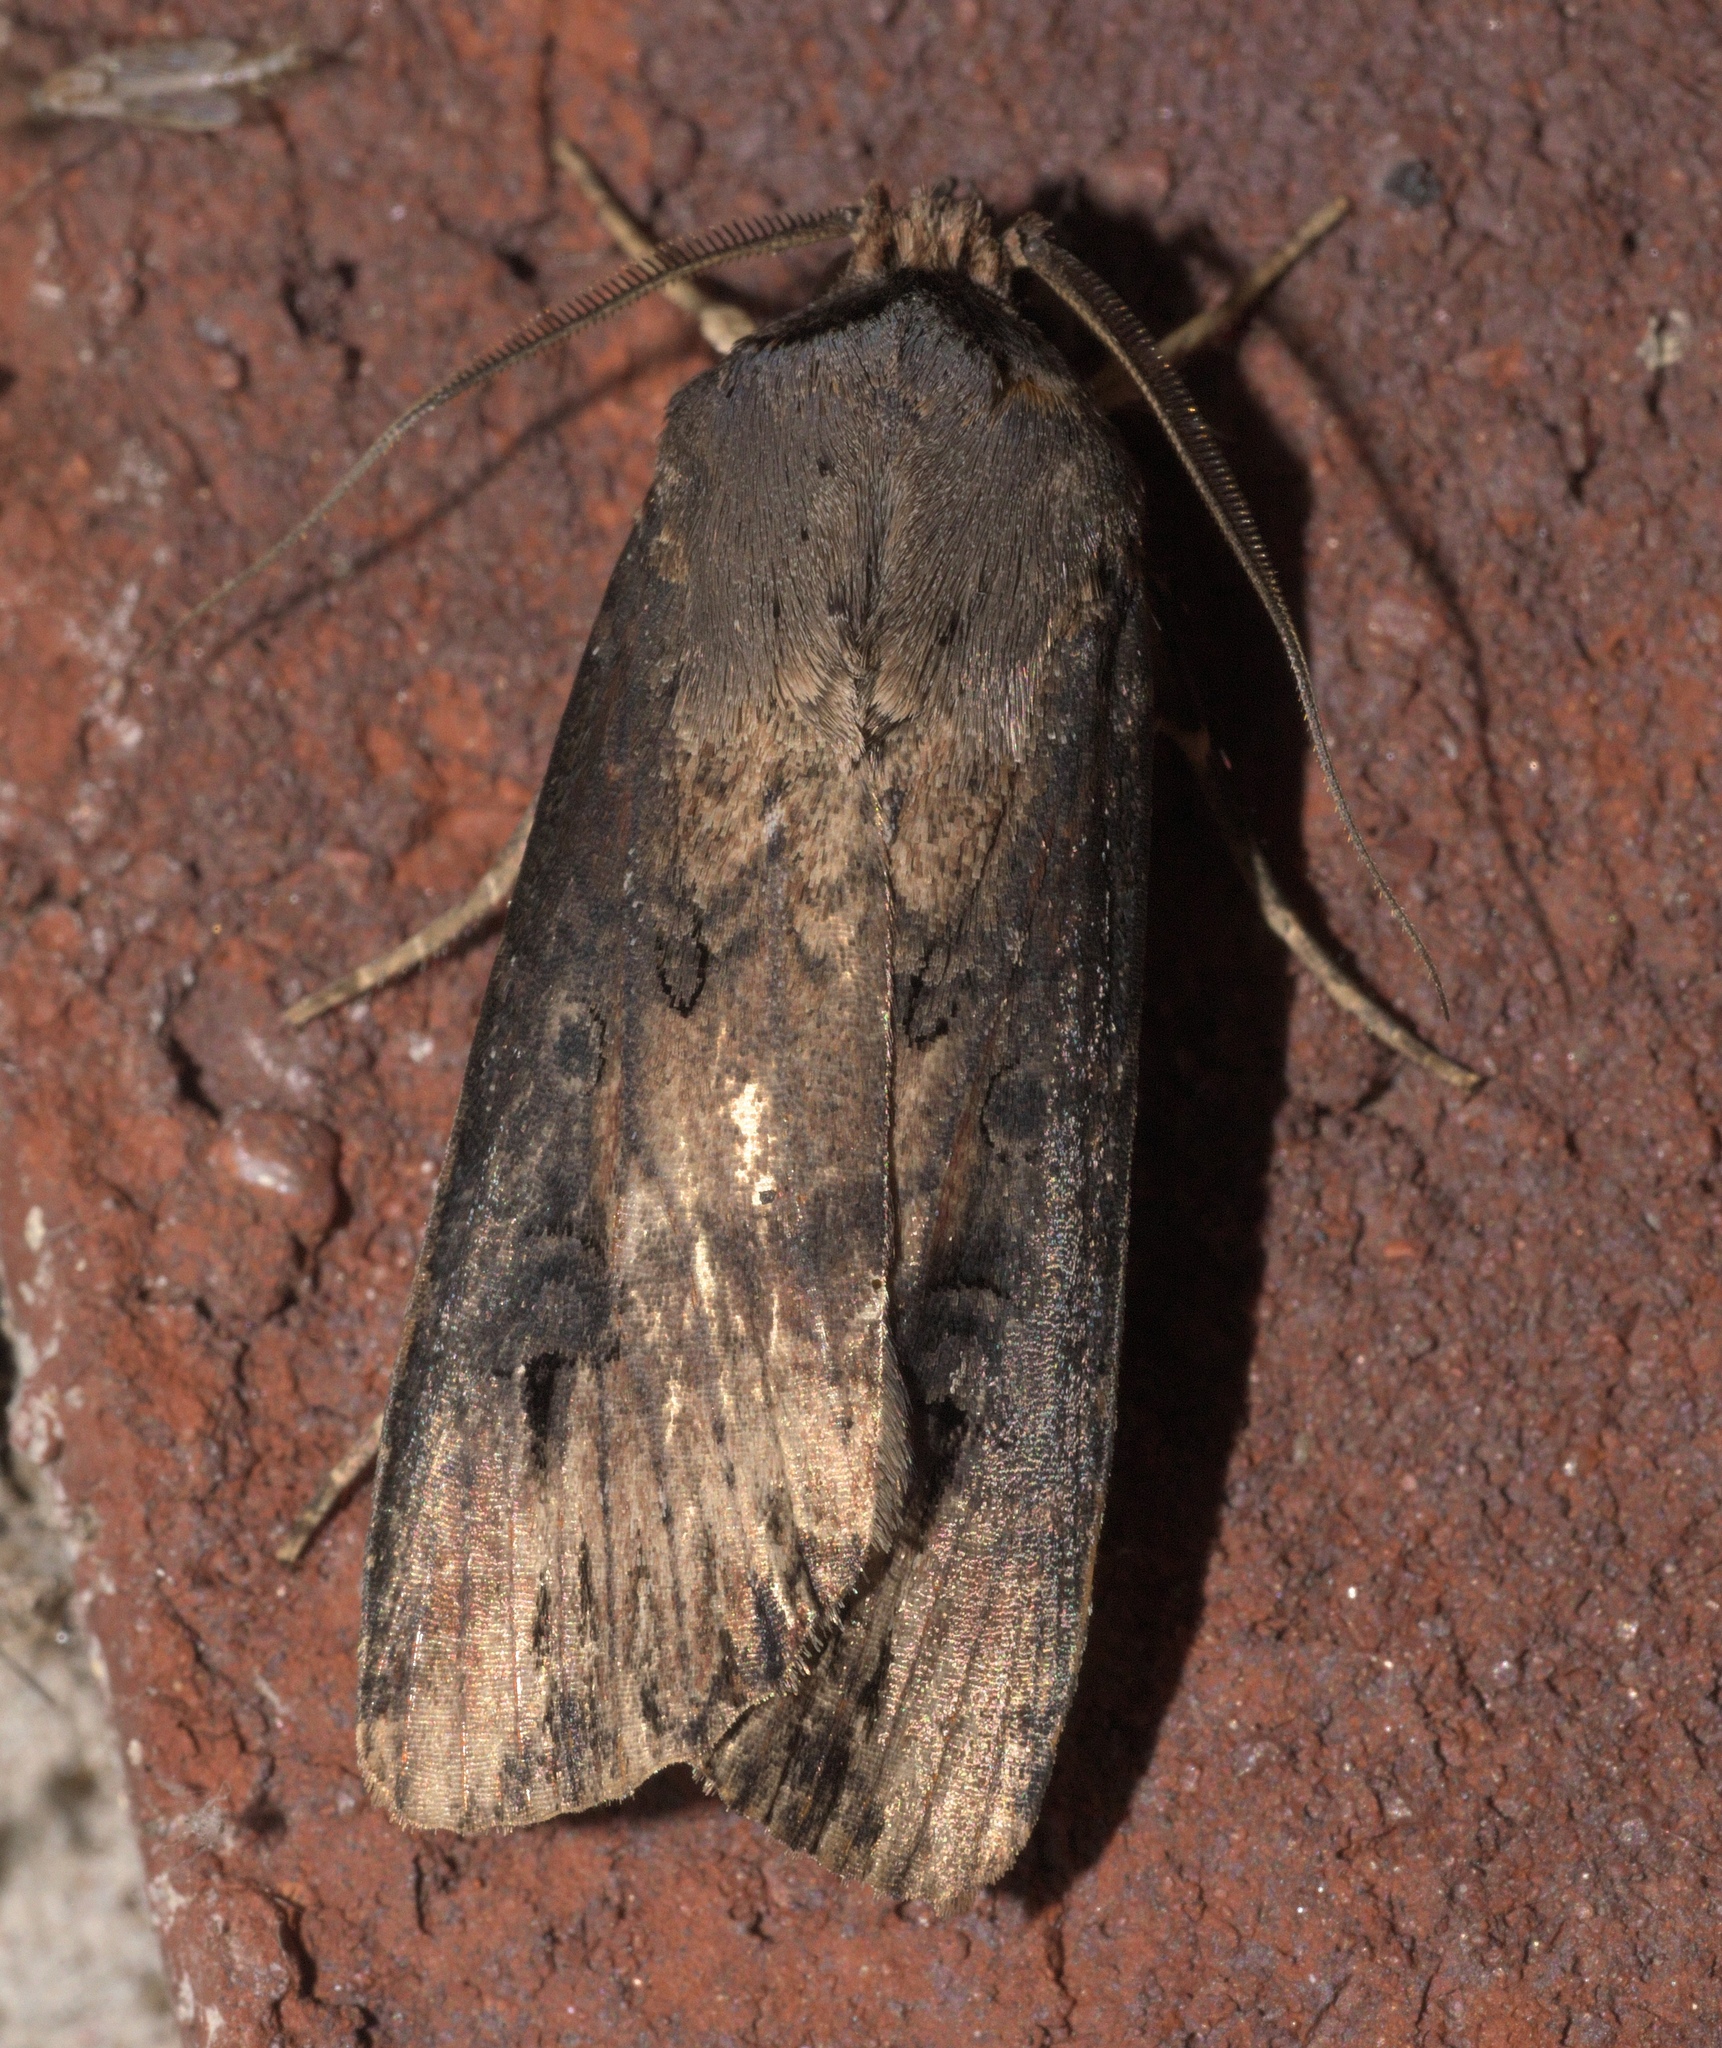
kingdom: Animalia
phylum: Arthropoda
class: Insecta
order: Lepidoptera
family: Noctuidae
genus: Agrotis
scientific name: Agrotis ipsilon
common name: Dark sword-grass
